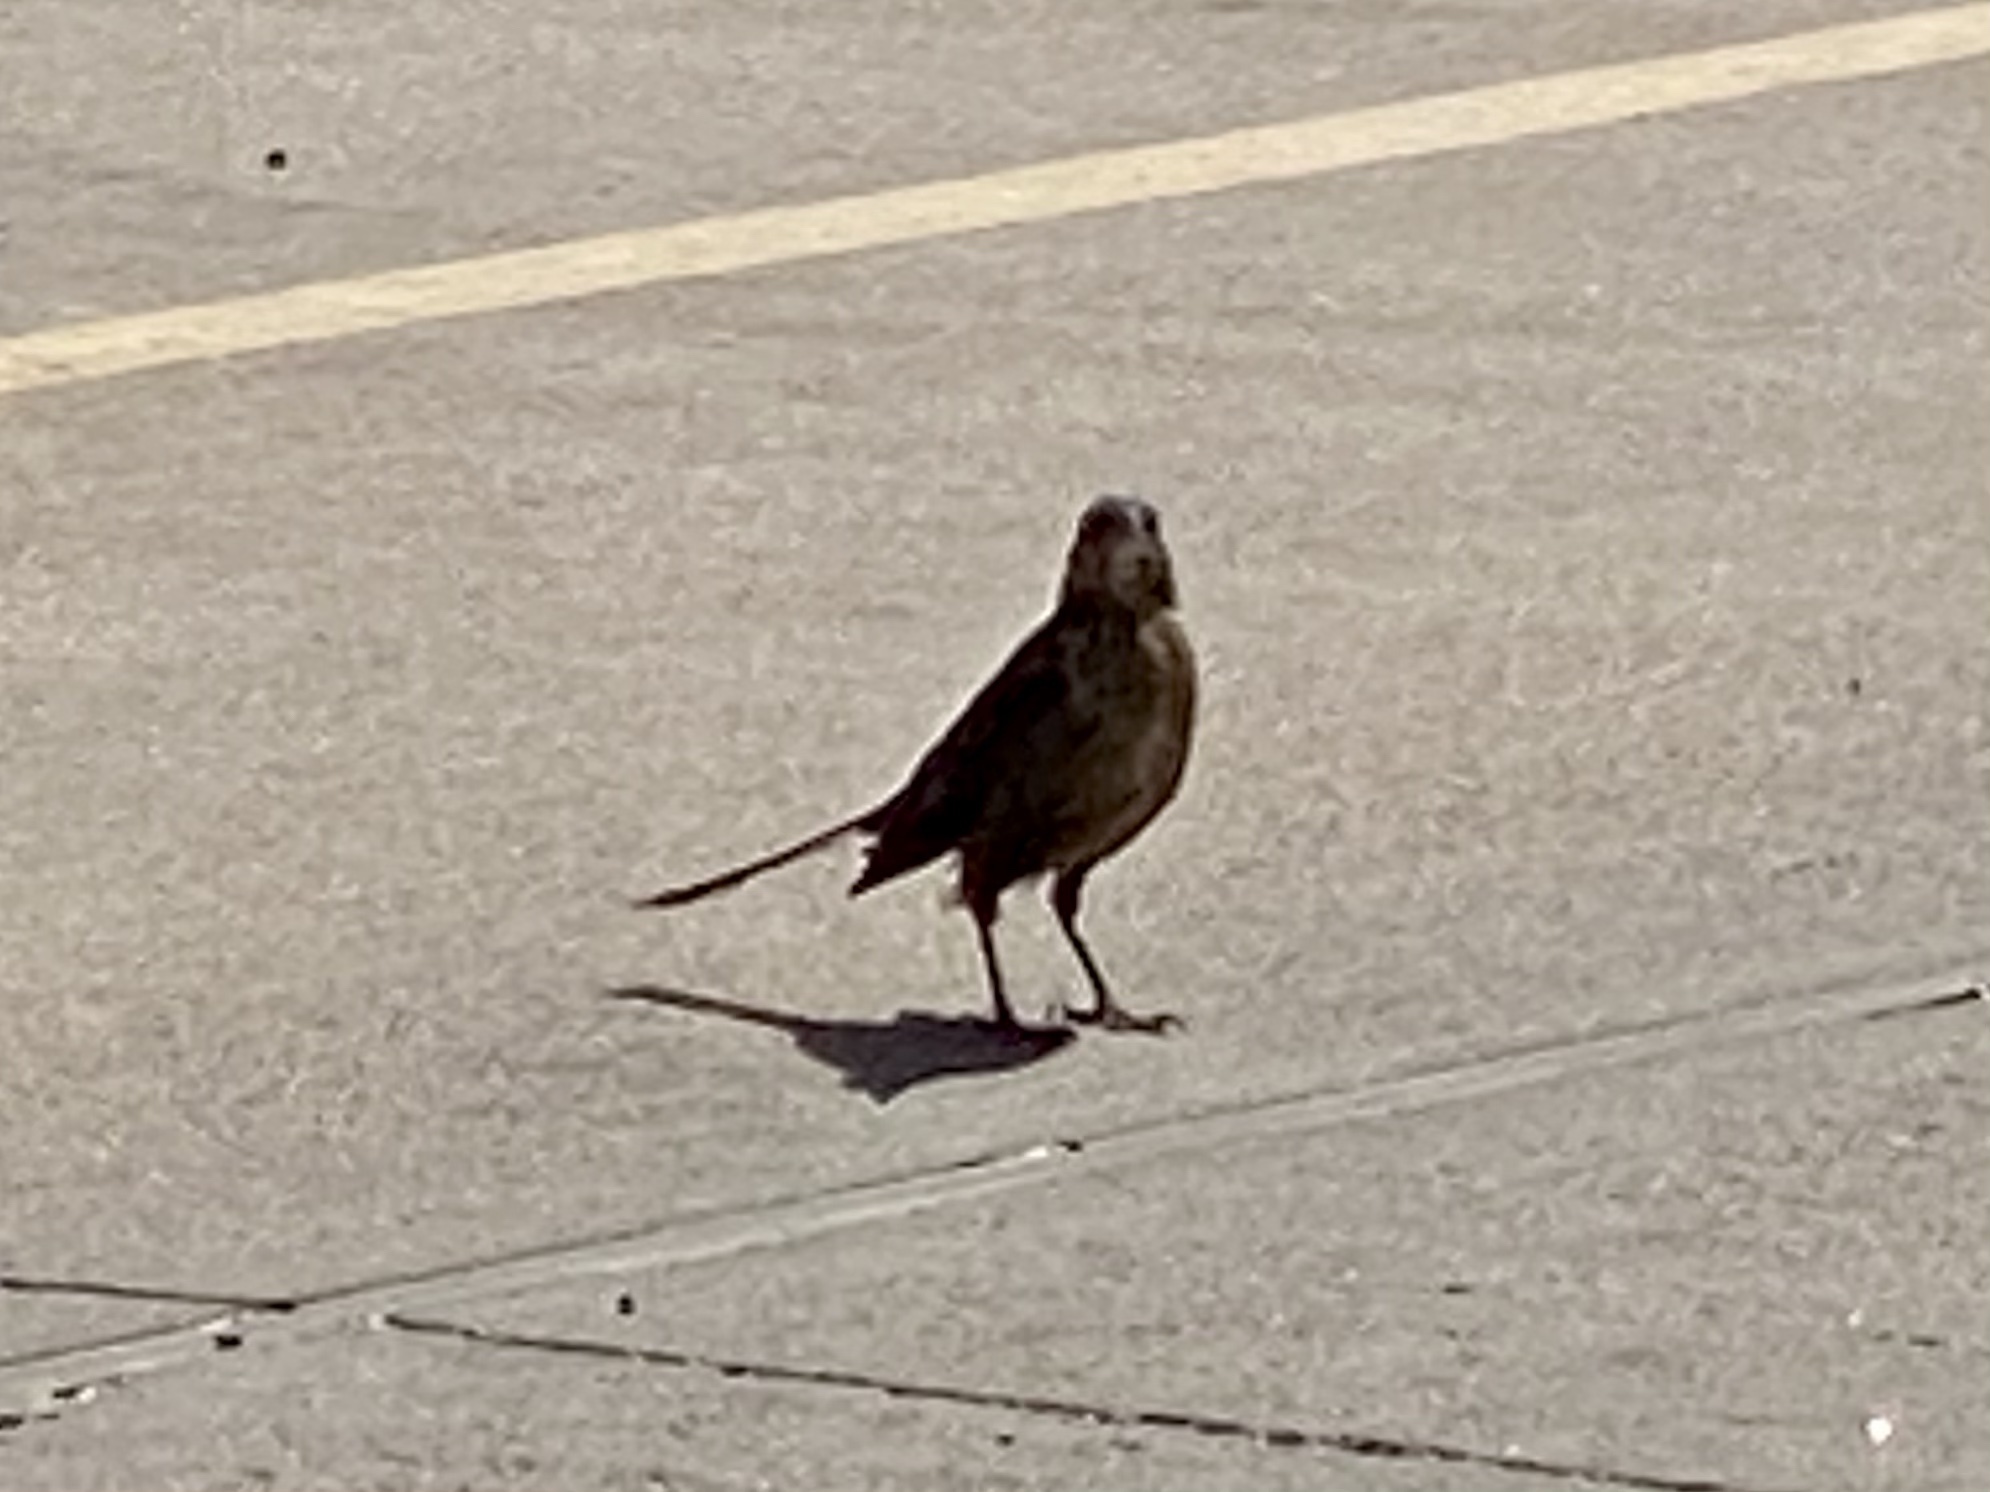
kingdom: Animalia
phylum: Chordata
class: Aves
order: Passeriformes
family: Icteridae
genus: Quiscalus
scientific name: Quiscalus mexicanus
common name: Great-tailed grackle
